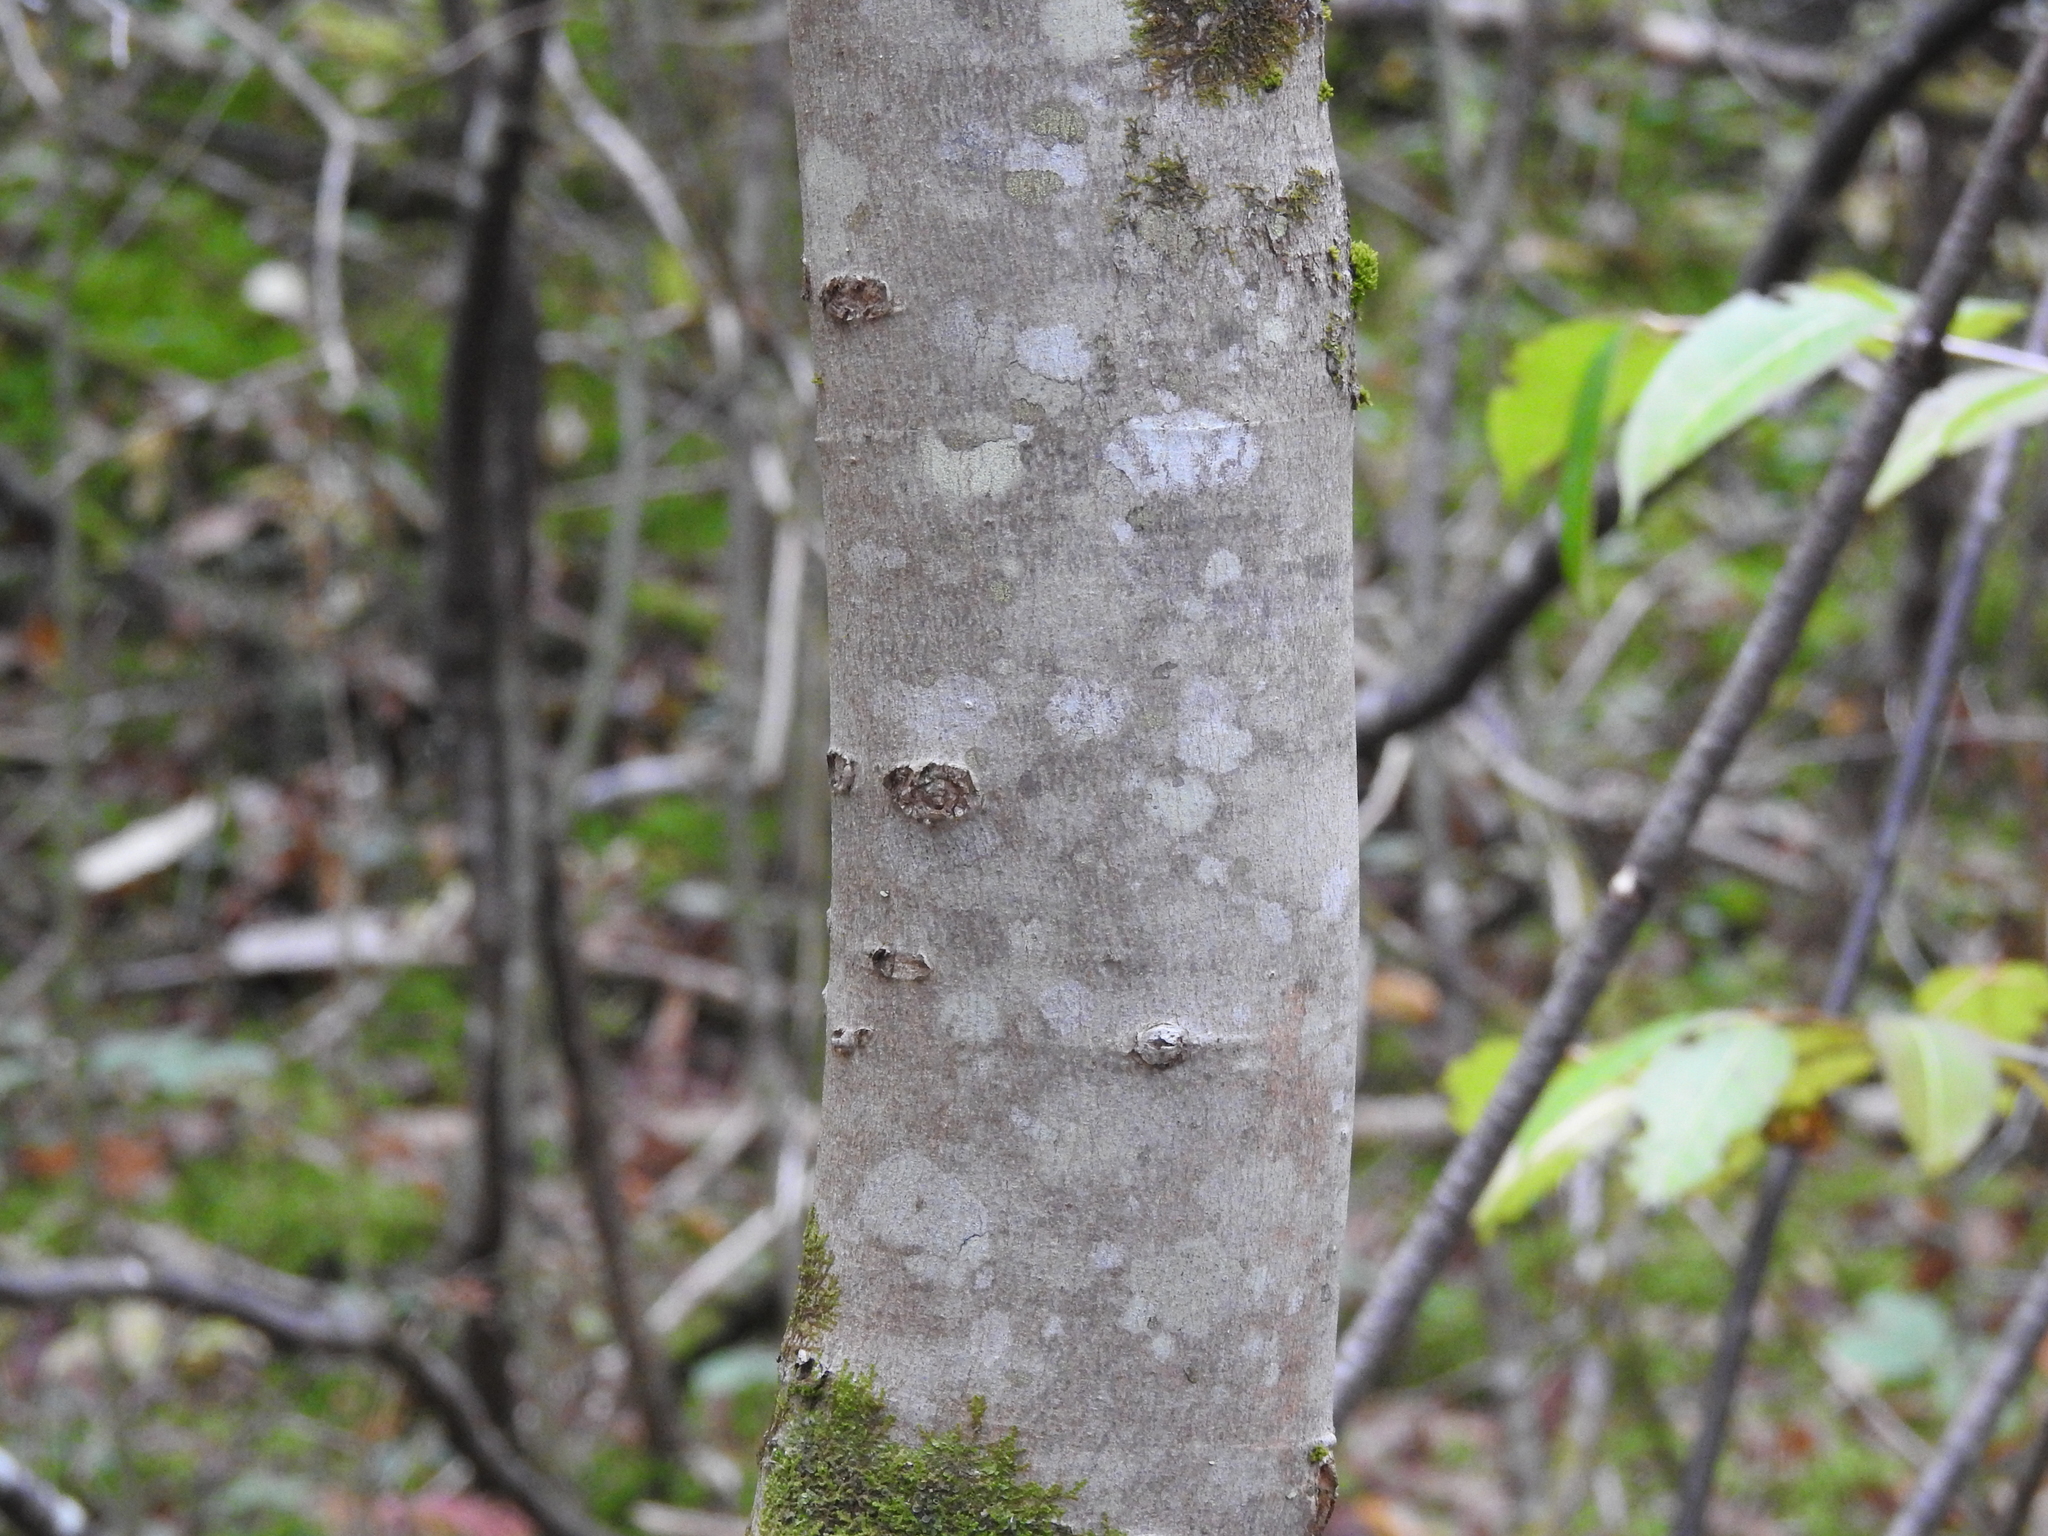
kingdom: Plantae
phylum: Tracheophyta
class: Magnoliopsida
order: Sapindales
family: Sapindaceae
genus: Acer
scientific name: Acer rubrum
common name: Red maple
